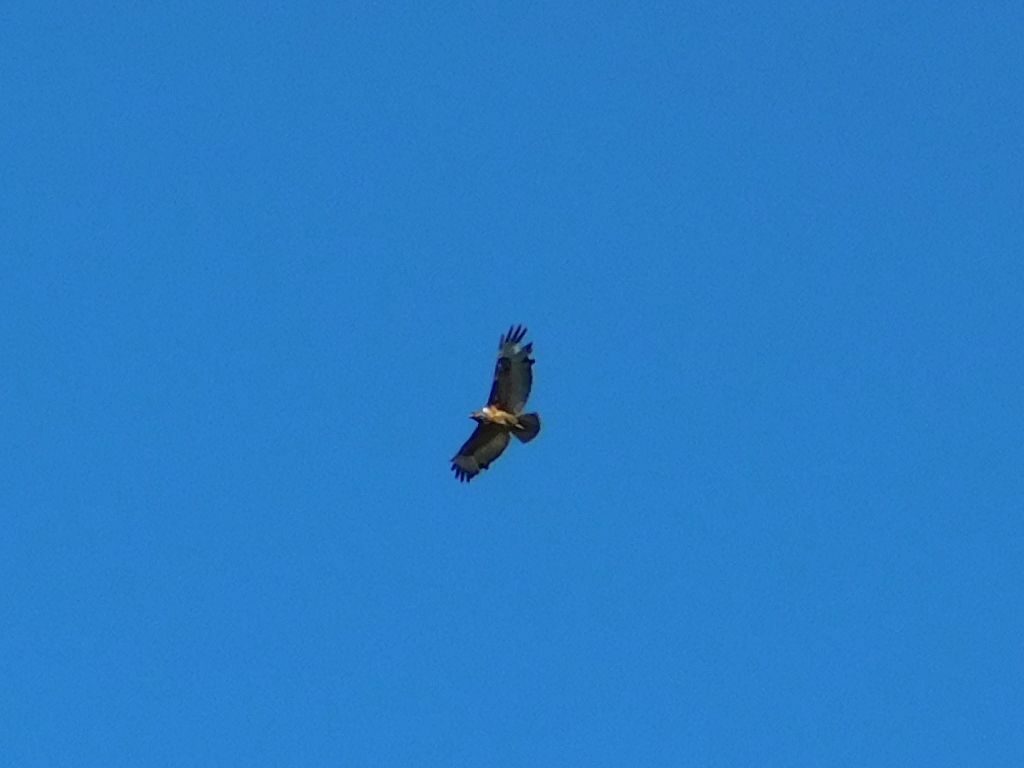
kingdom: Animalia
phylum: Chordata
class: Aves
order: Accipitriformes
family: Accipitridae
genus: Buteo
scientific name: Buteo rufofuscus
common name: Jackal buzzard
